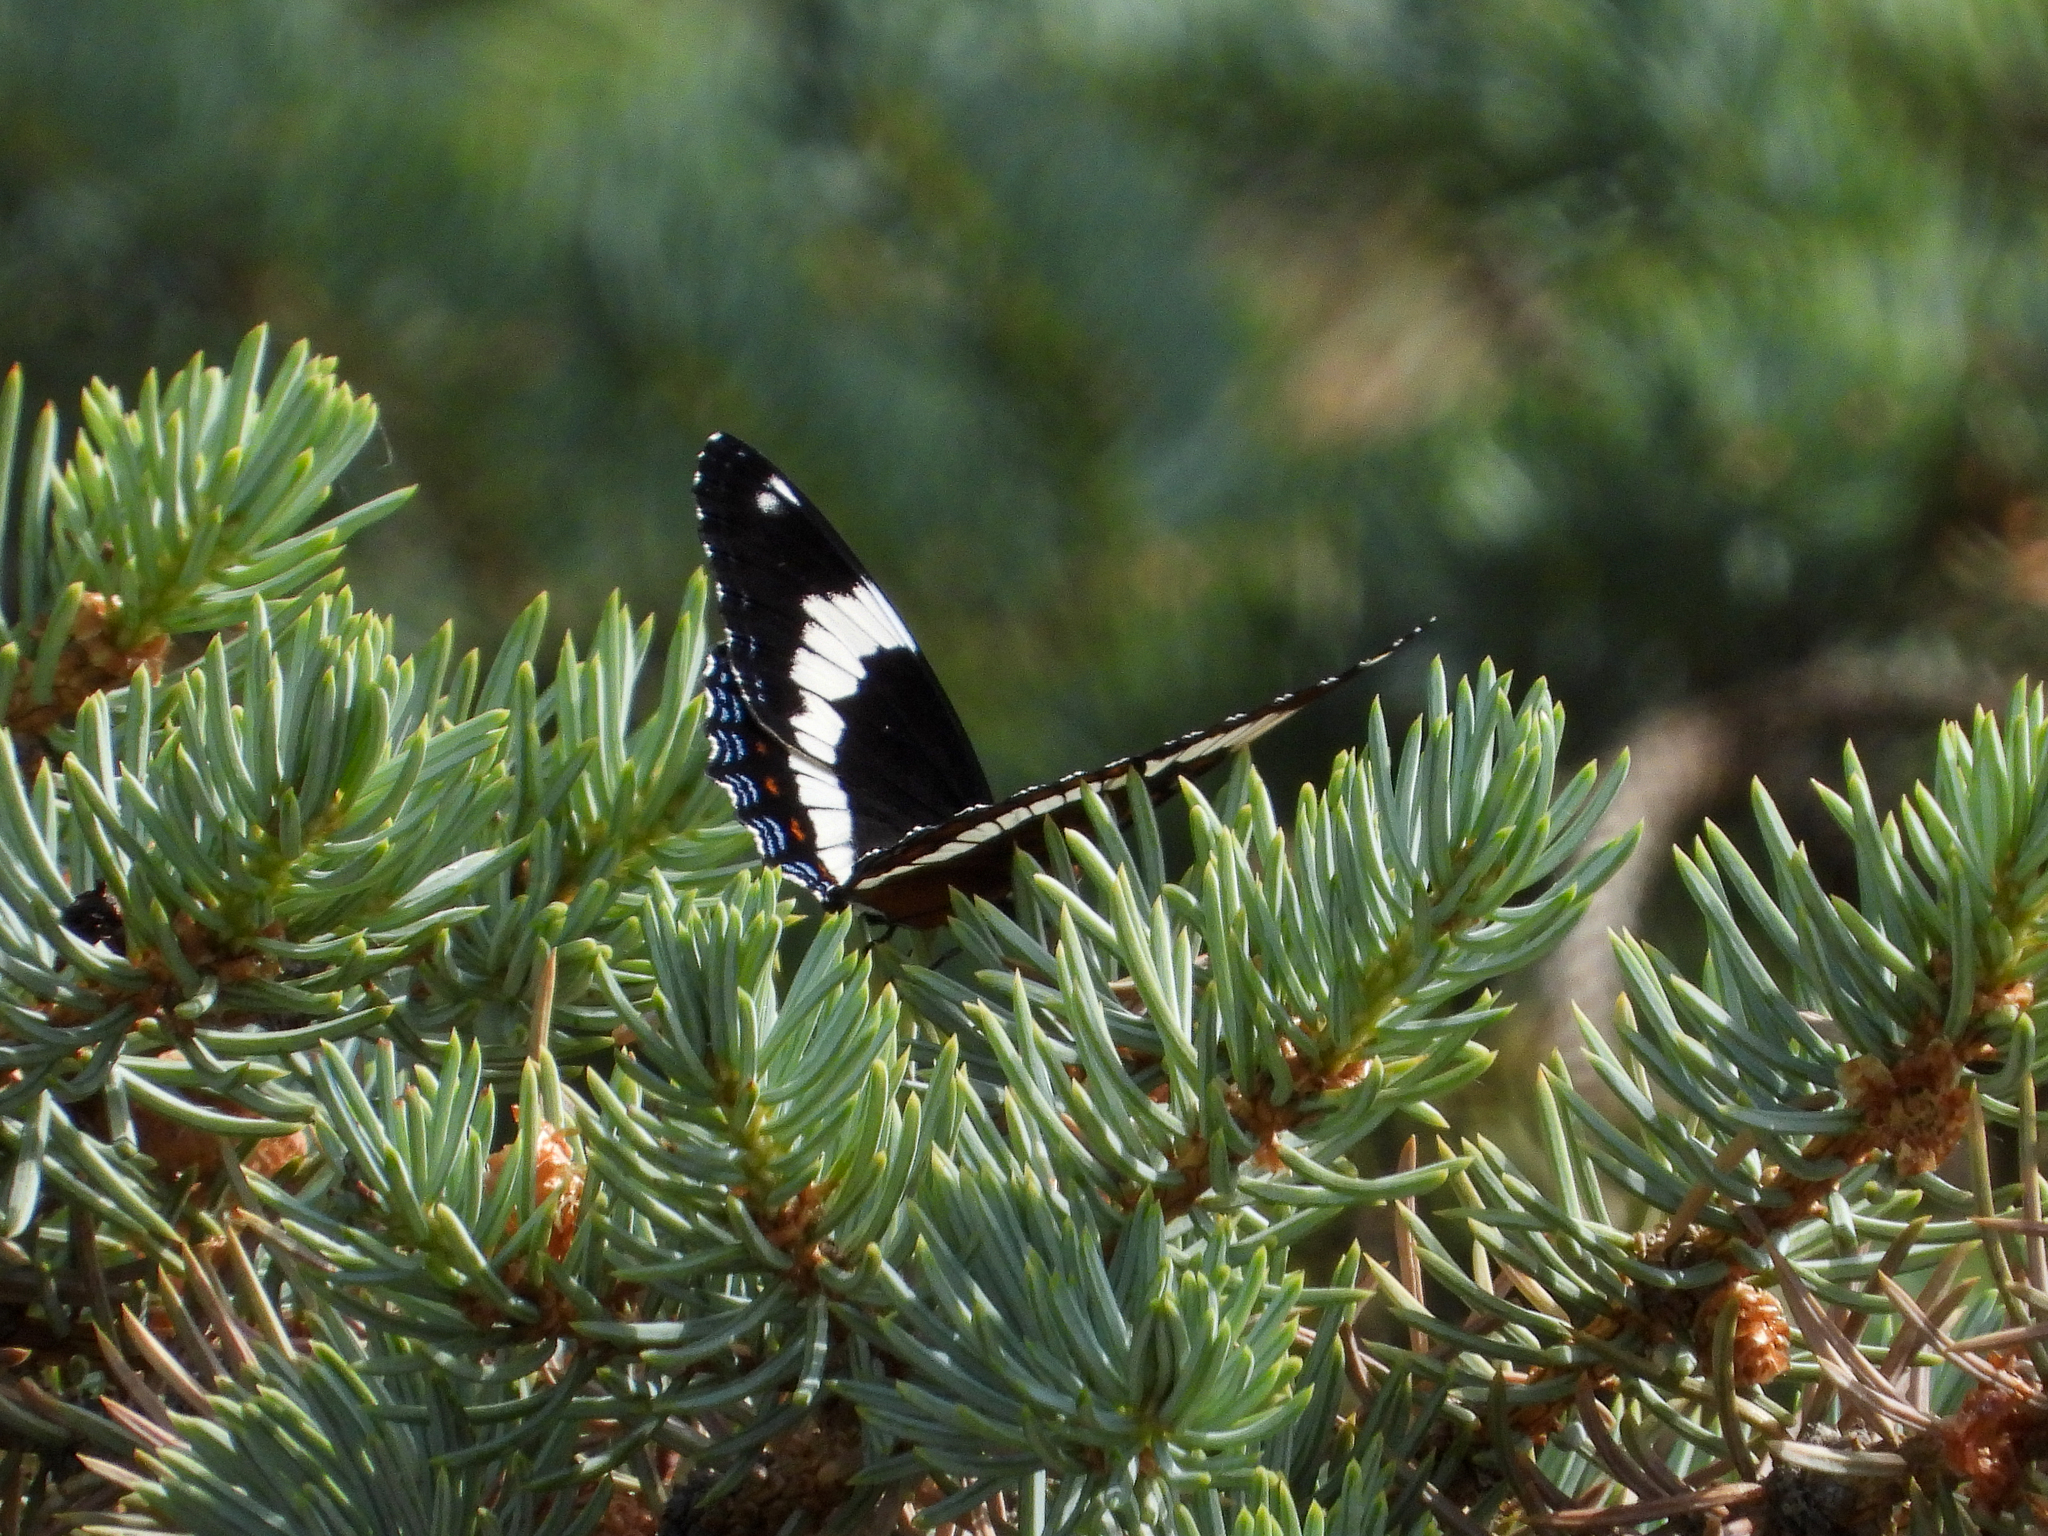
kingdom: Animalia
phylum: Arthropoda
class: Insecta
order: Lepidoptera
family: Nymphalidae
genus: Limenitis
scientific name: Limenitis arthemis
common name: Red-spotted admiral
